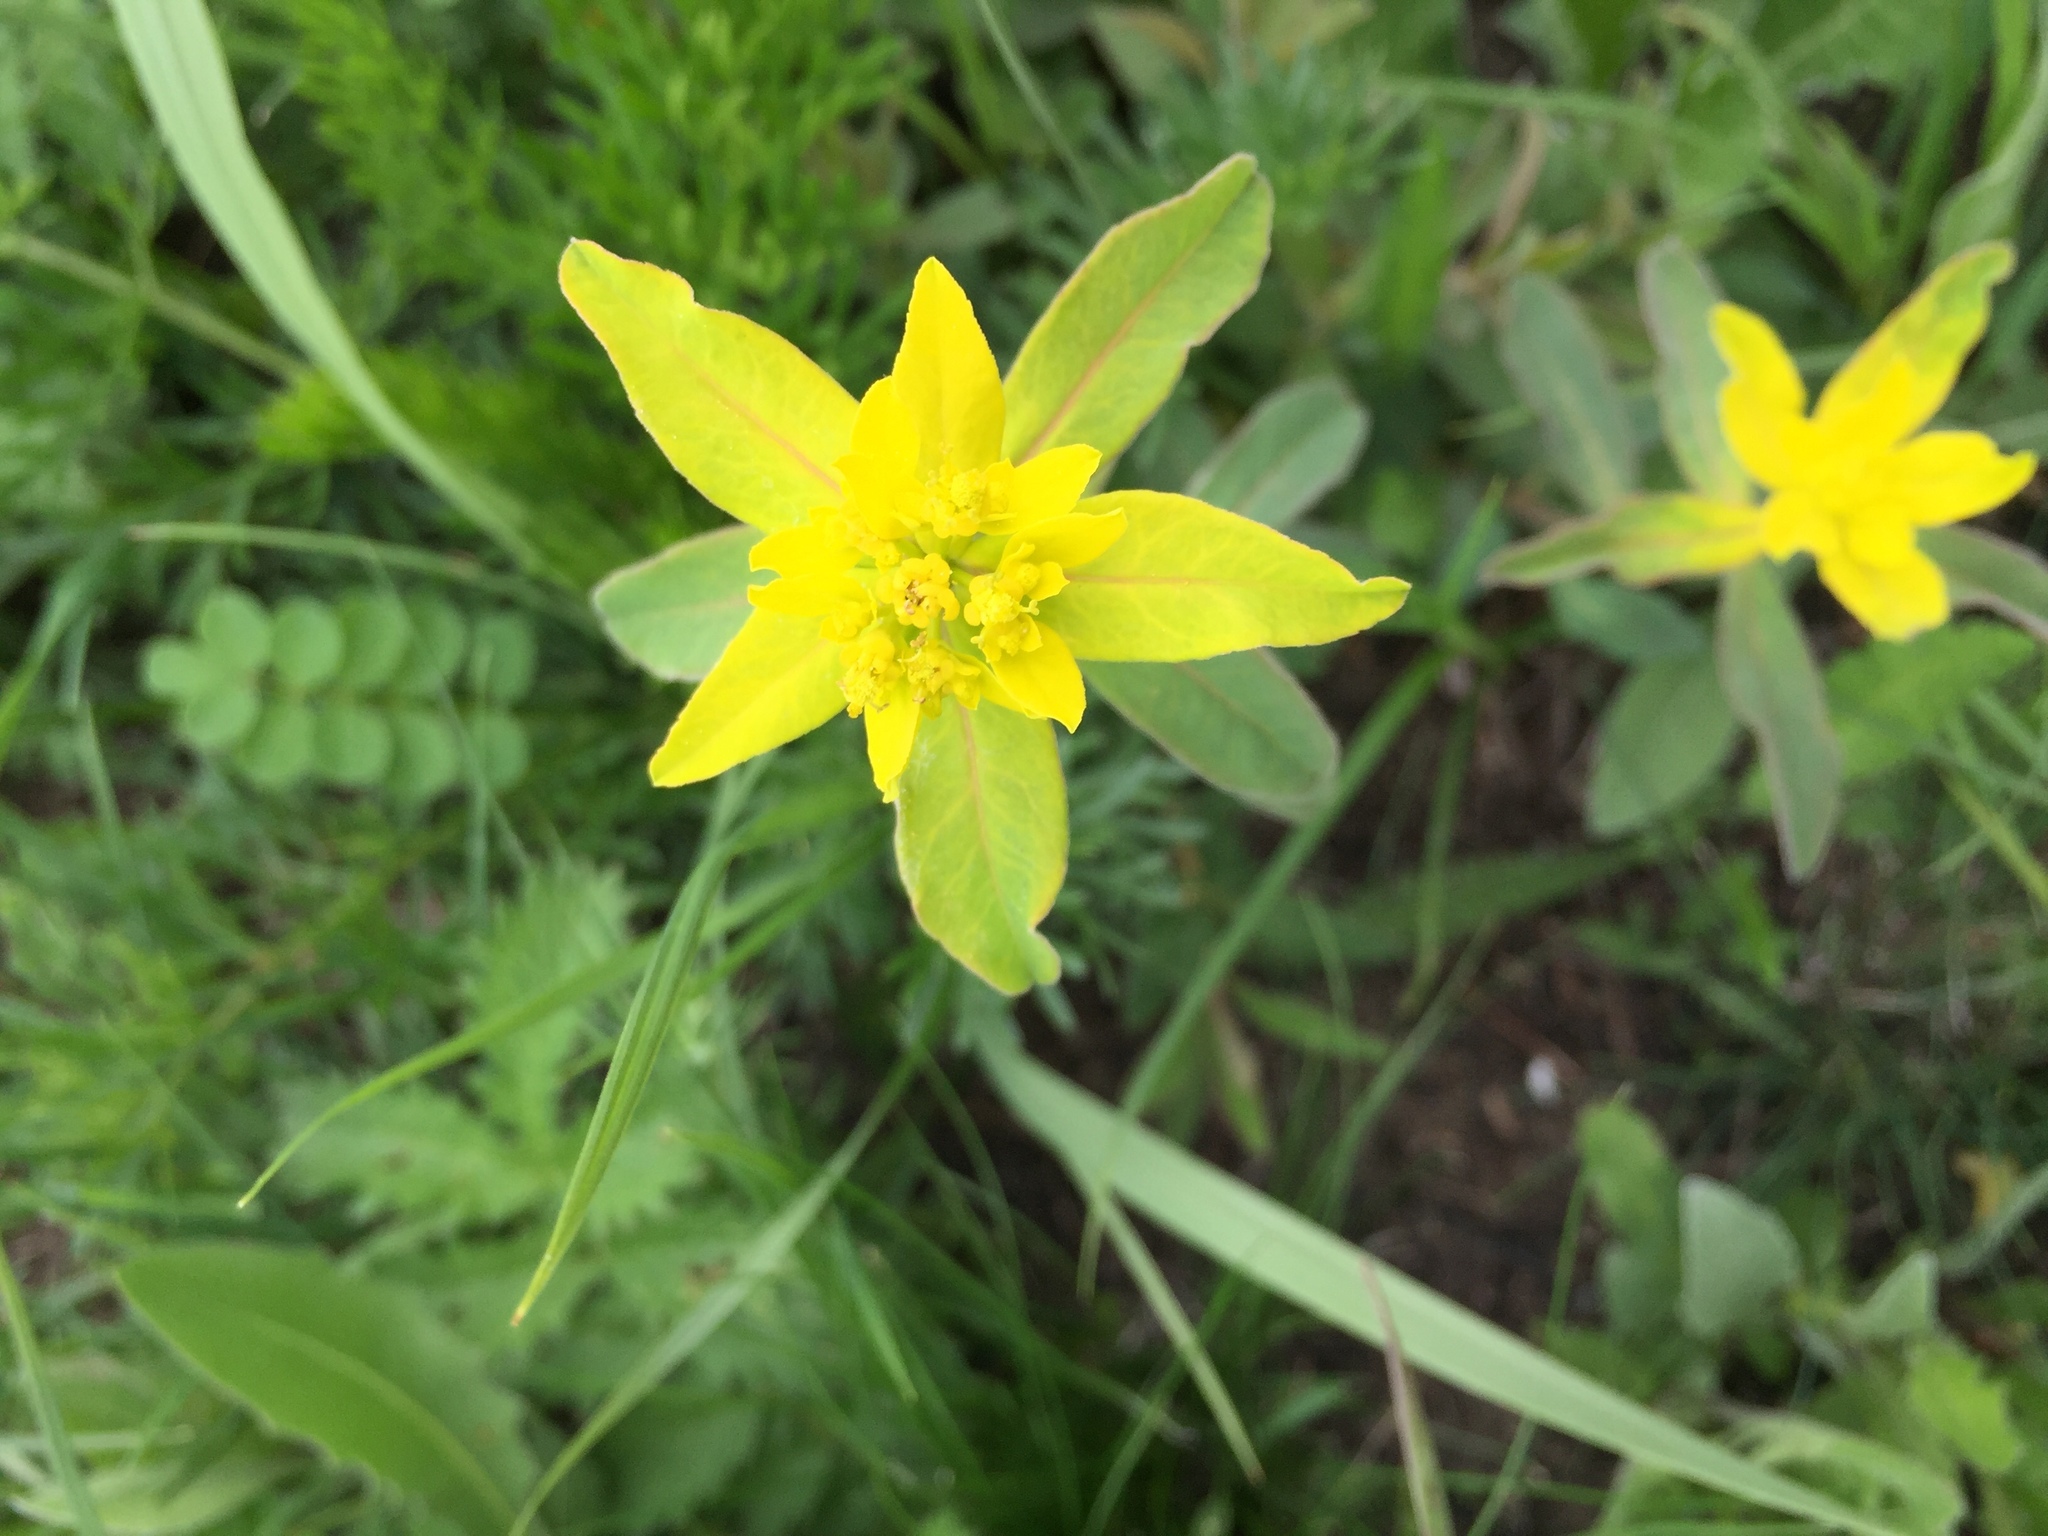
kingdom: Plantae
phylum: Tracheophyta
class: Magnoliopsida
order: Malpighiales
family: Euphorbiaceae
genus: Euphorbia
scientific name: Euphorbia epithymoides
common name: Cushion spurge
